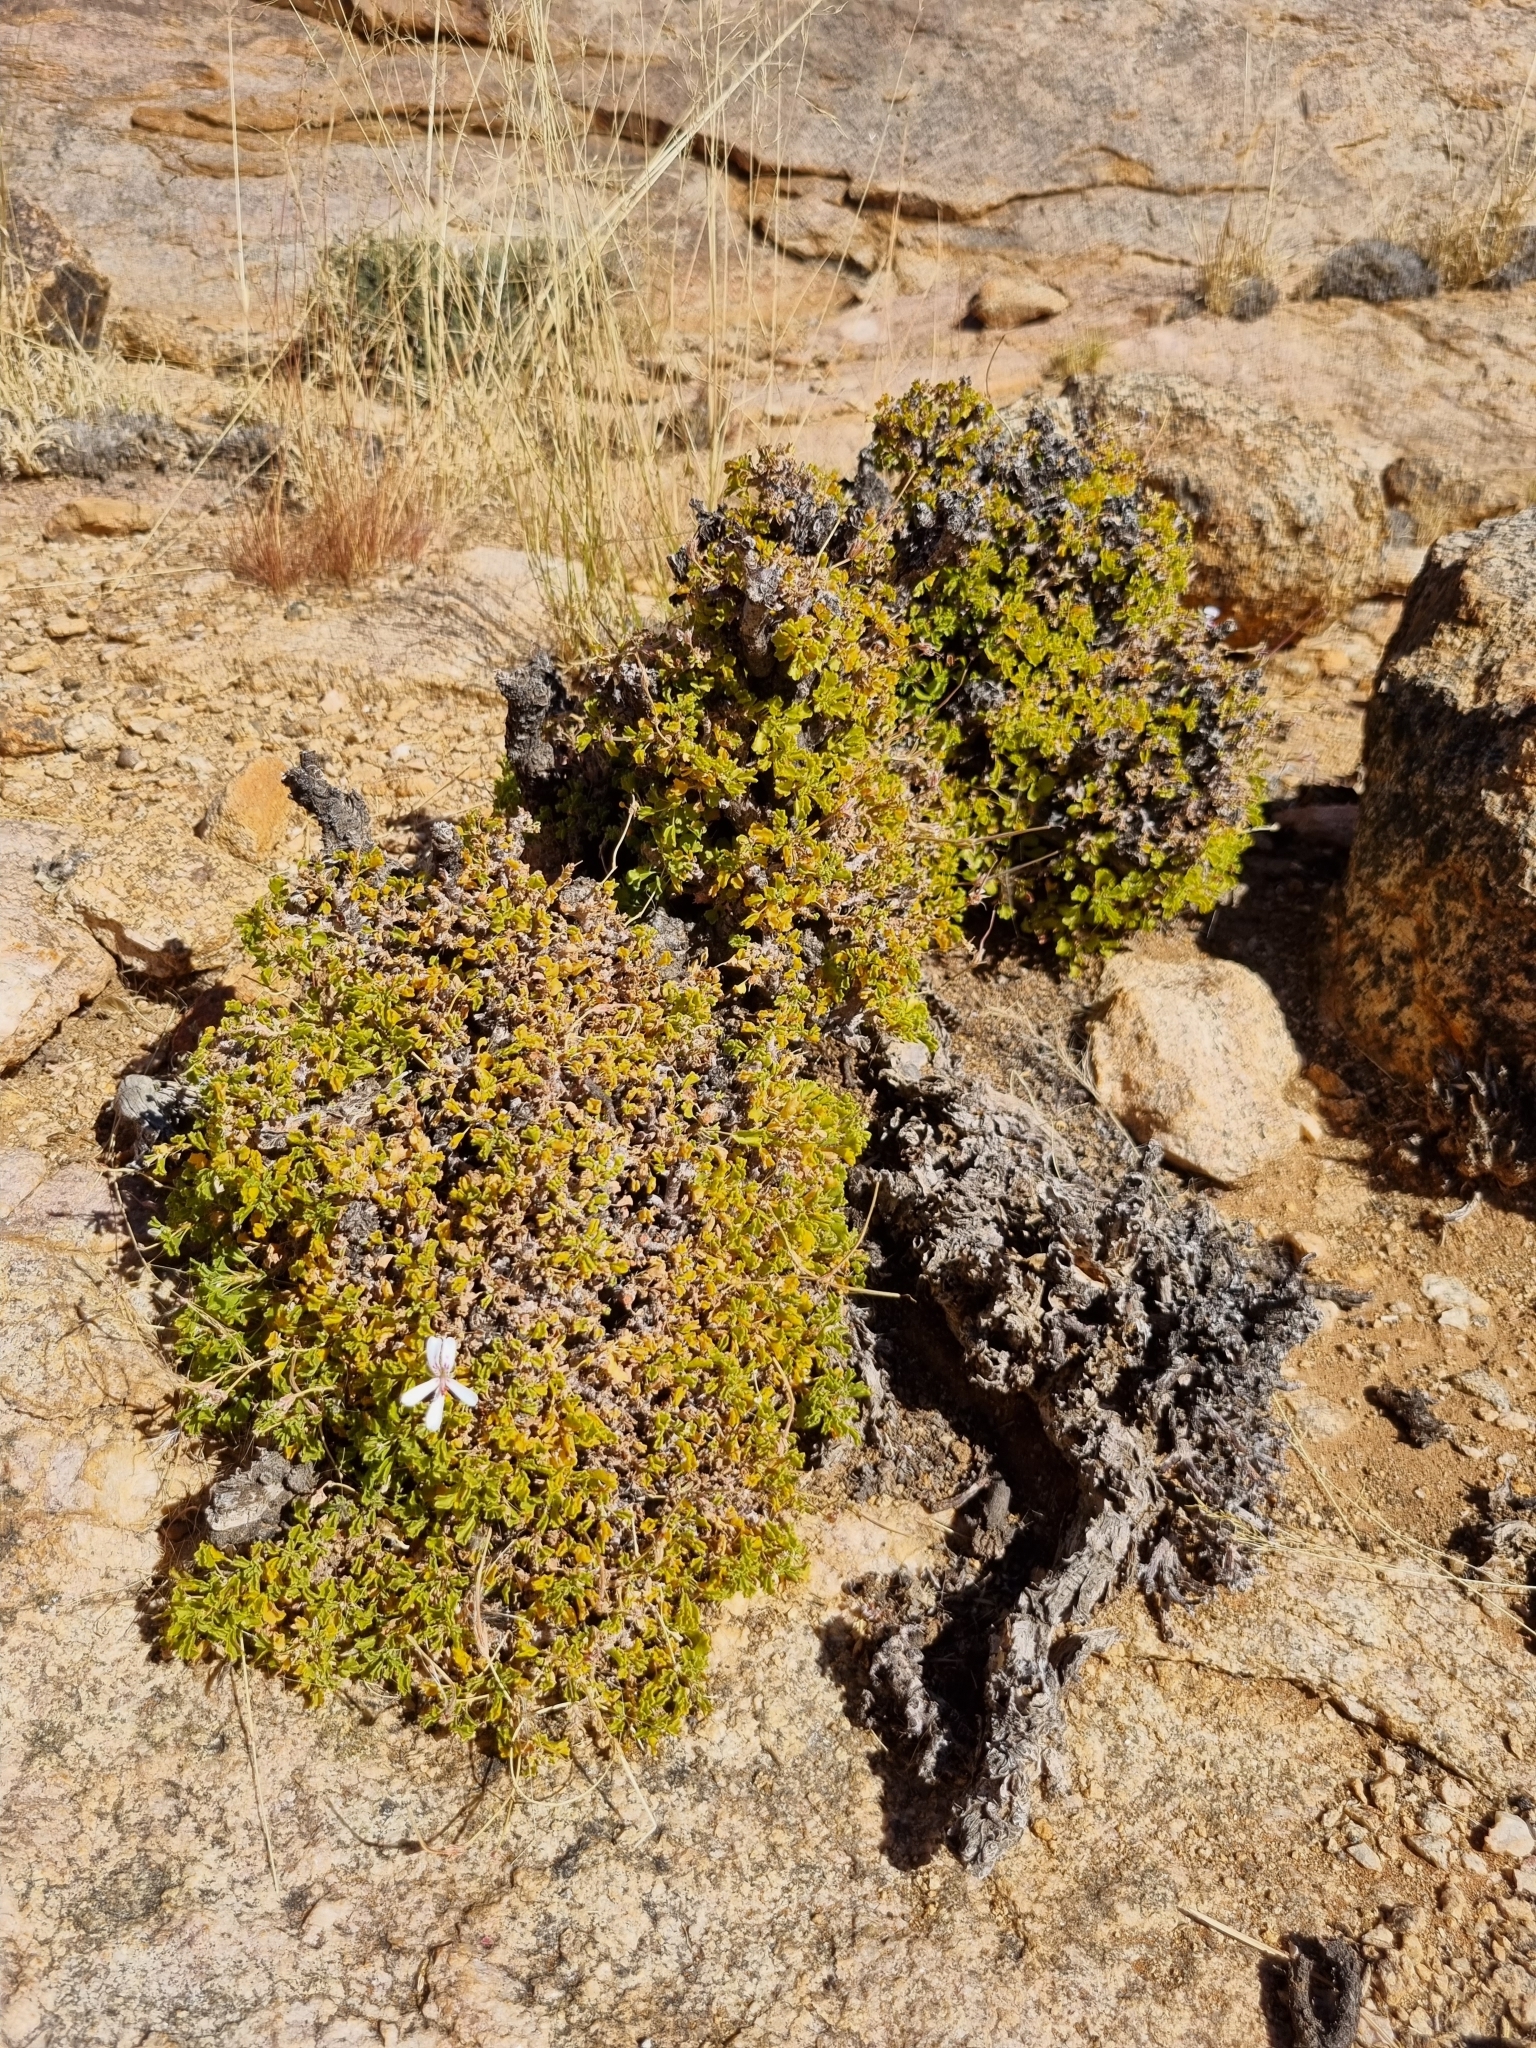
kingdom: Plantae
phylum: Tracheophyta
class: Magnoliopsida
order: Geraniales
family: Geraniaceae
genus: Pelargonium
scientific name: Pelargonium xerophyton
